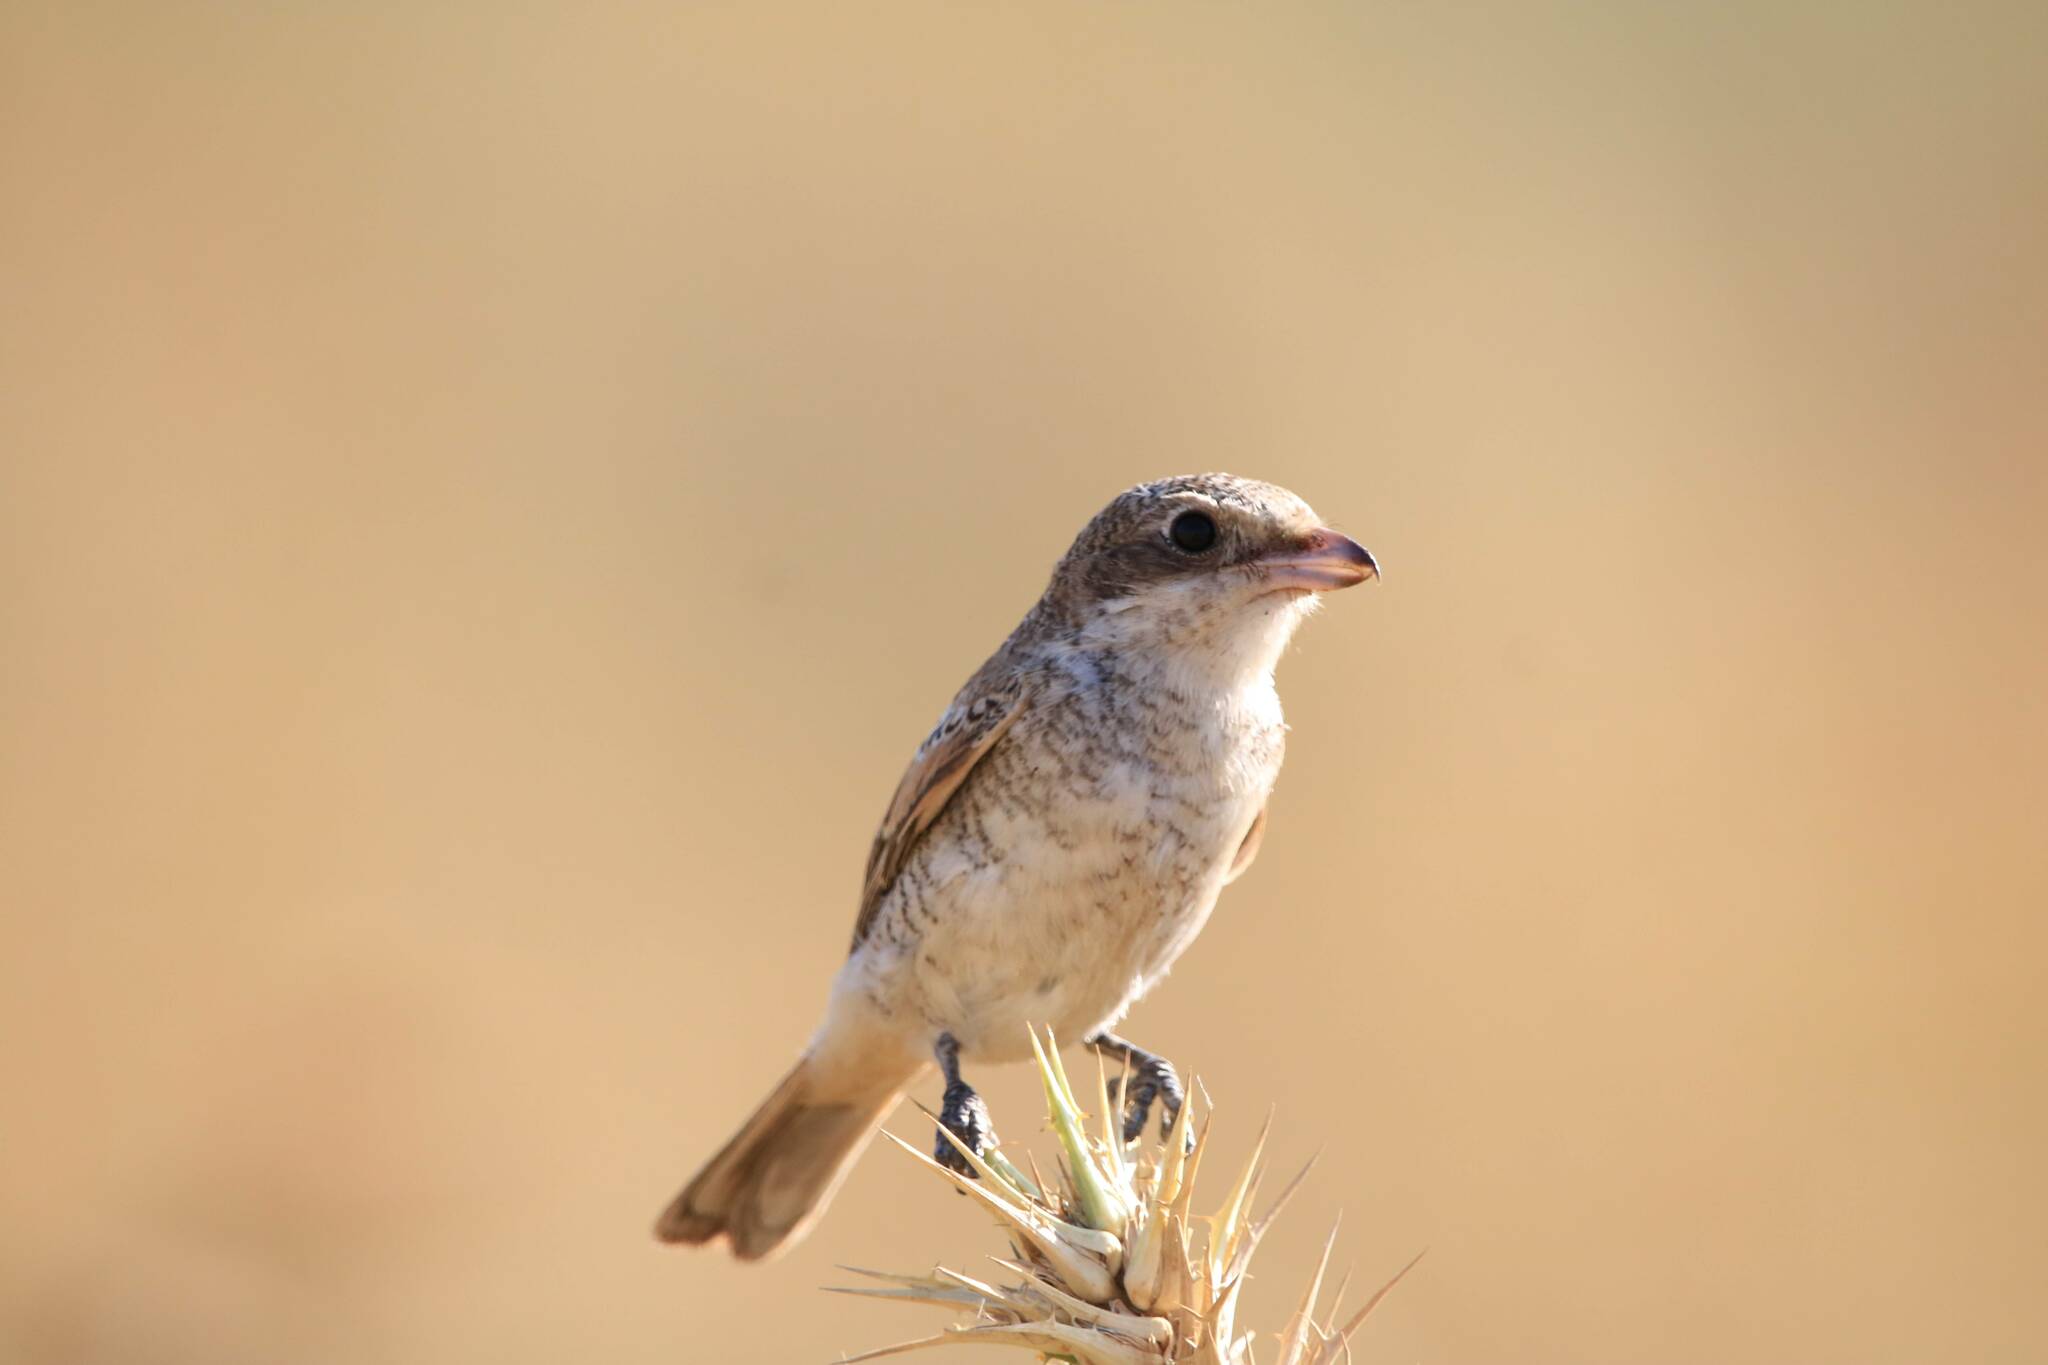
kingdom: Animalia
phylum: Chordata
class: Aves
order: Passeriformes
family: Laniidae
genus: Lanius
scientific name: Lanius senator
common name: Woodchat shrike
